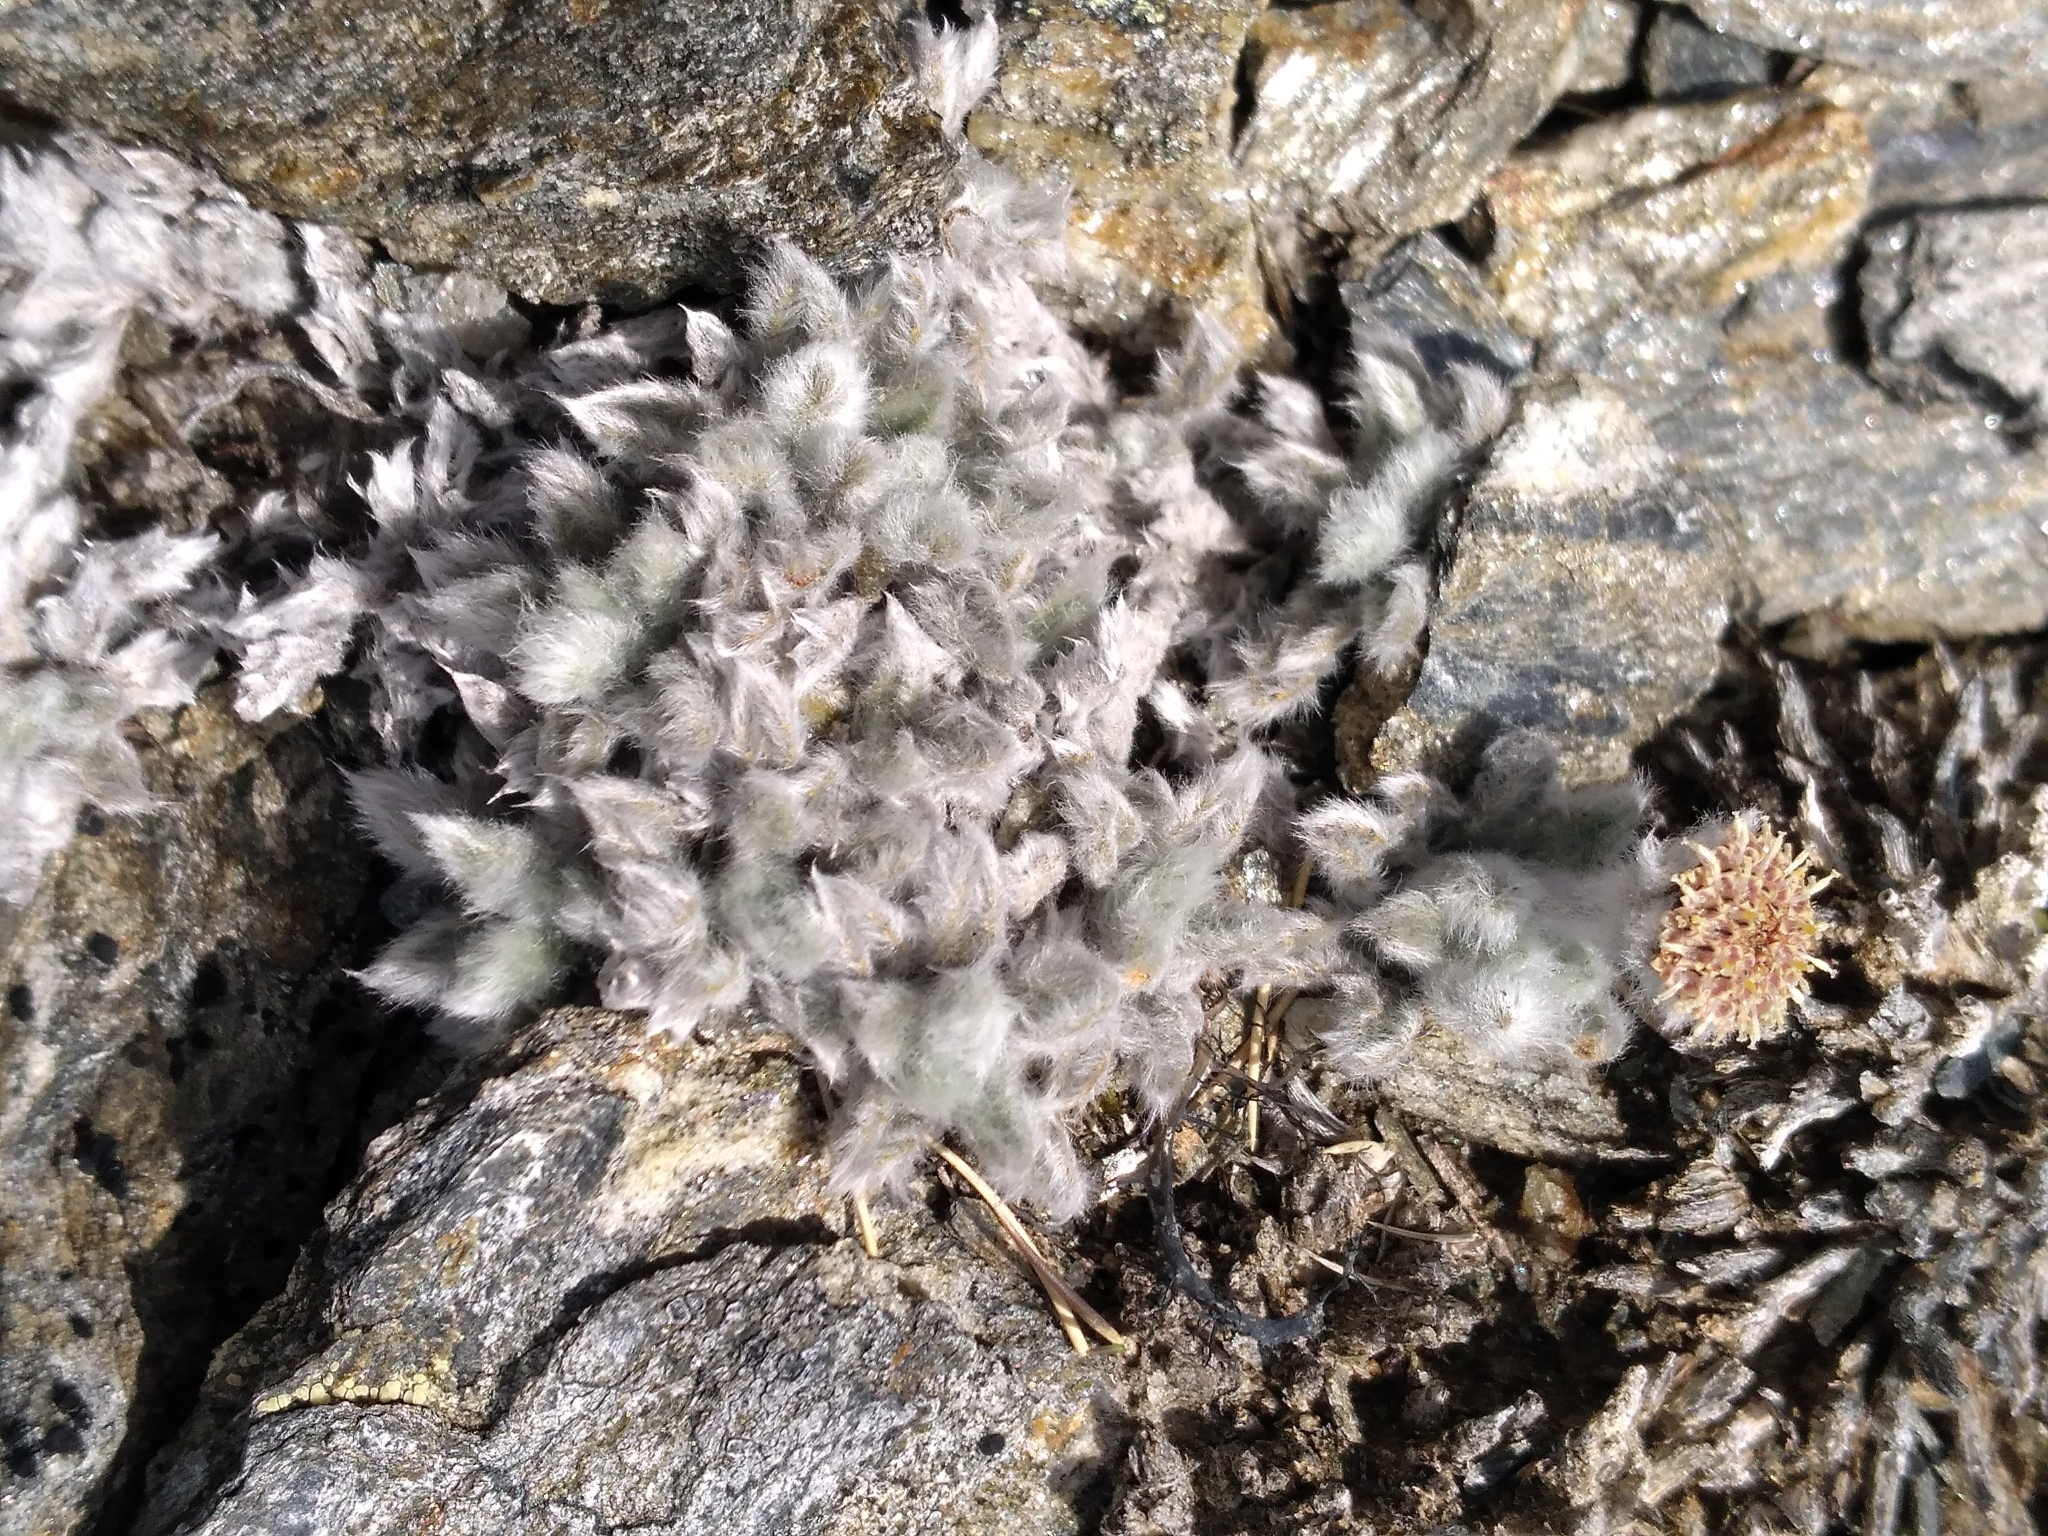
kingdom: Plantae
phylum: Tracheophyta
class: Magnoliopsida
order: Asterales
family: Asteraceae
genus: Leptinella
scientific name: Leptinella albida
